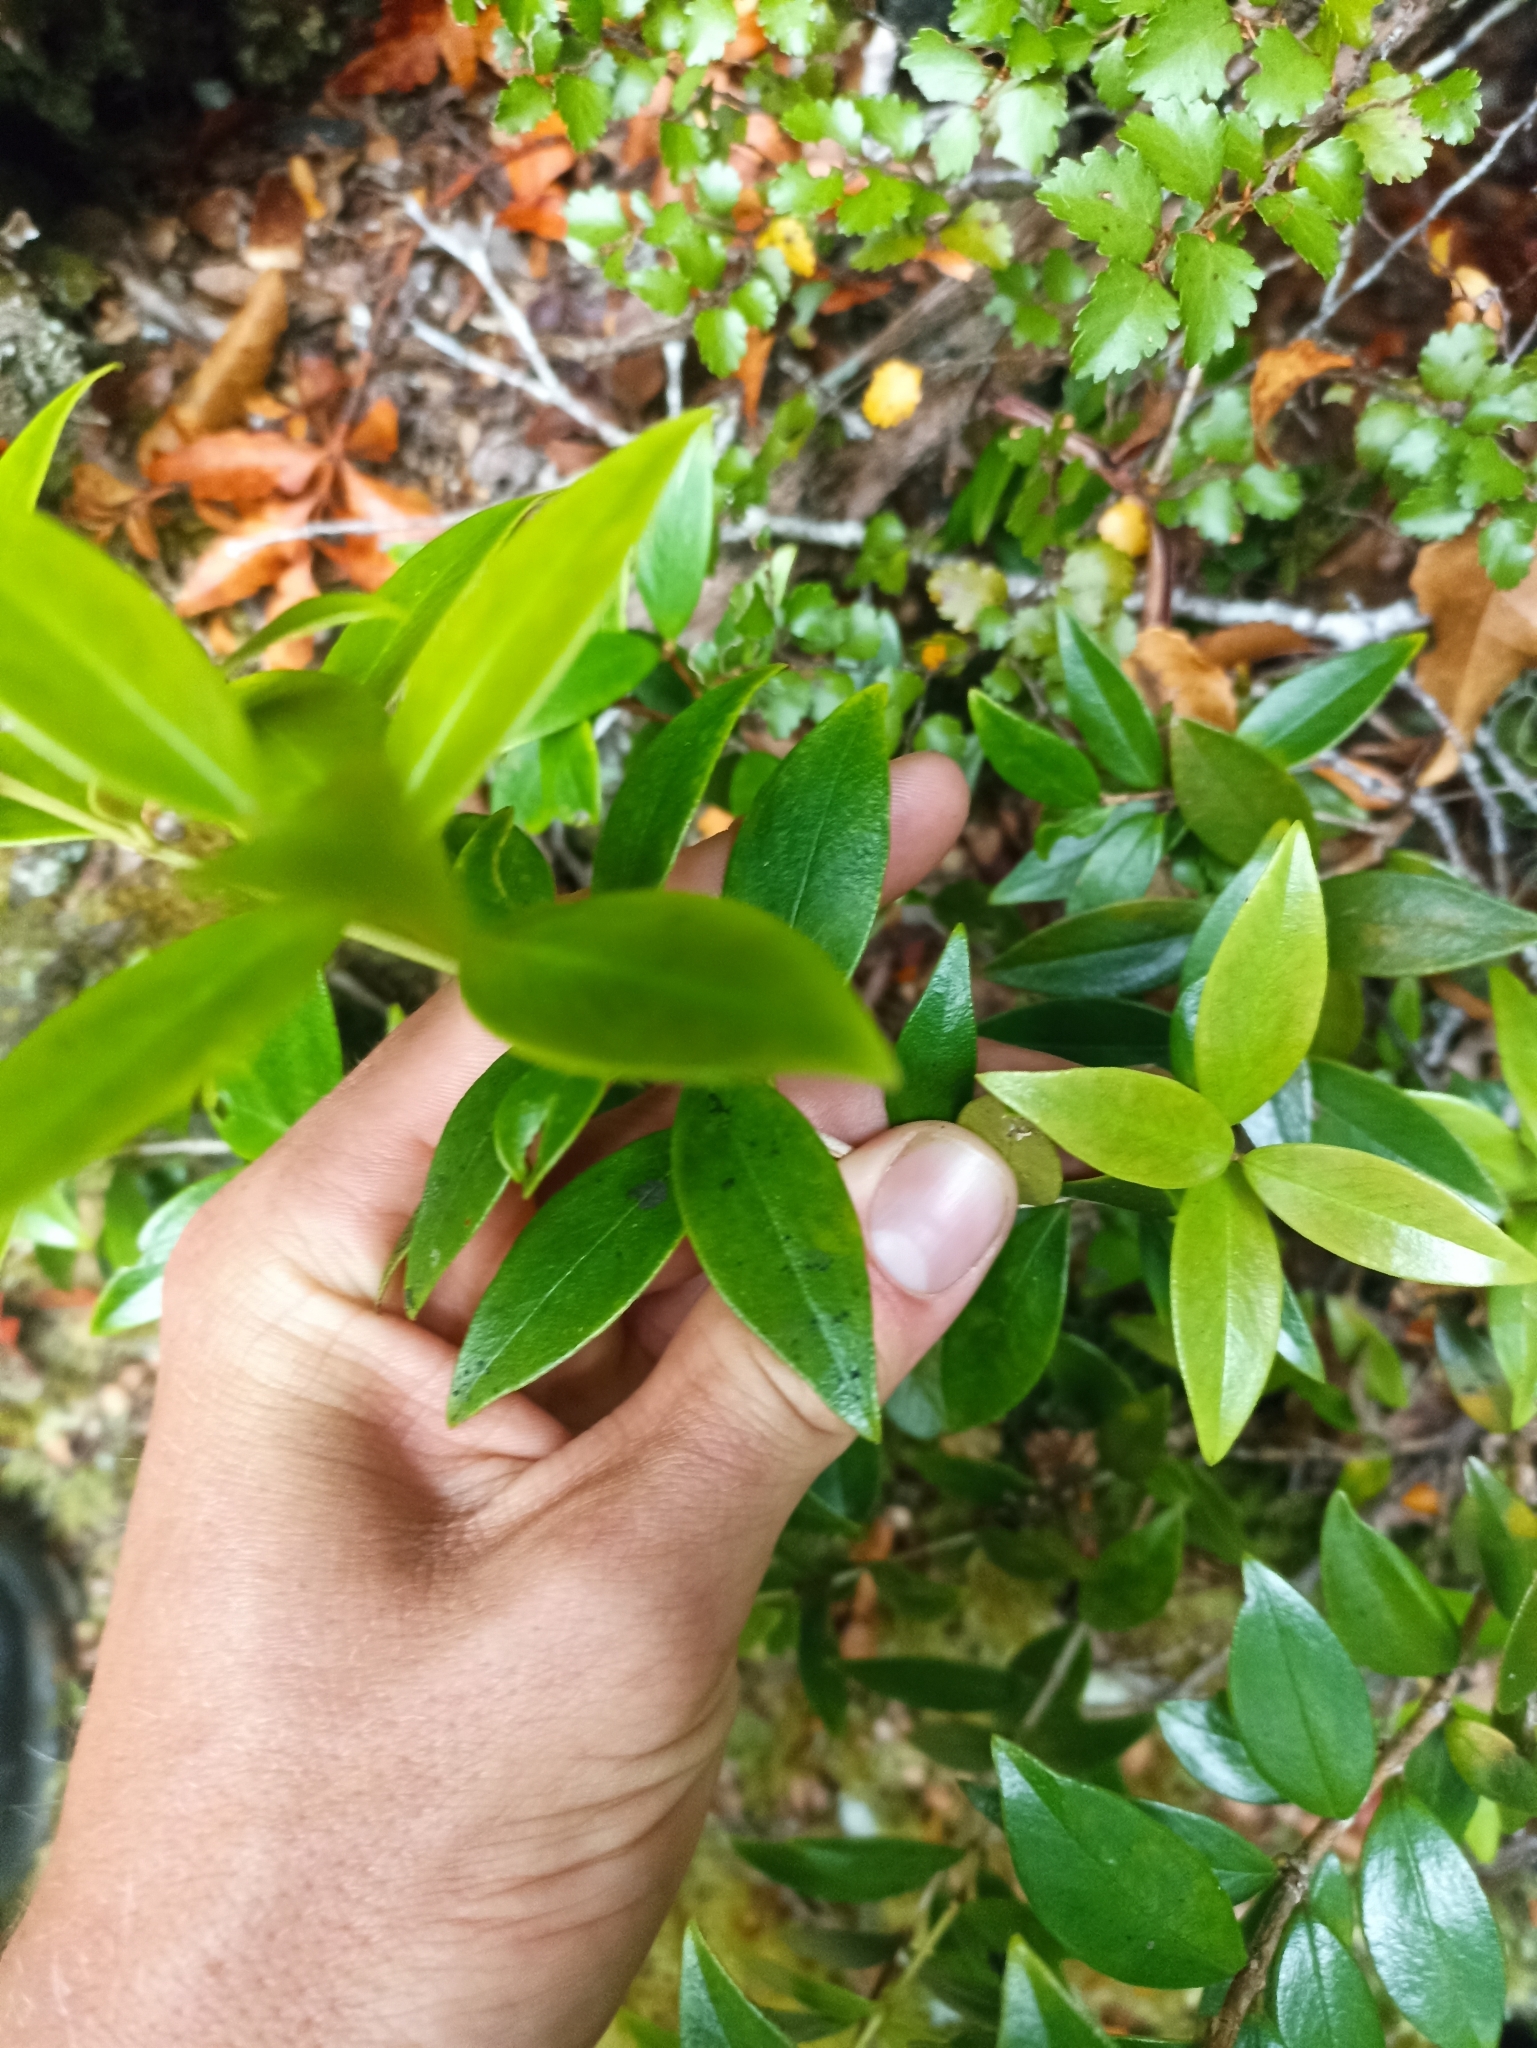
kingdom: Plantae
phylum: Tracheophyta
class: Magnoliopsida
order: Myrtales
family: Myrtaceae
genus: Metrosideros
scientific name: Metrosideros umbellata
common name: Southern rata
